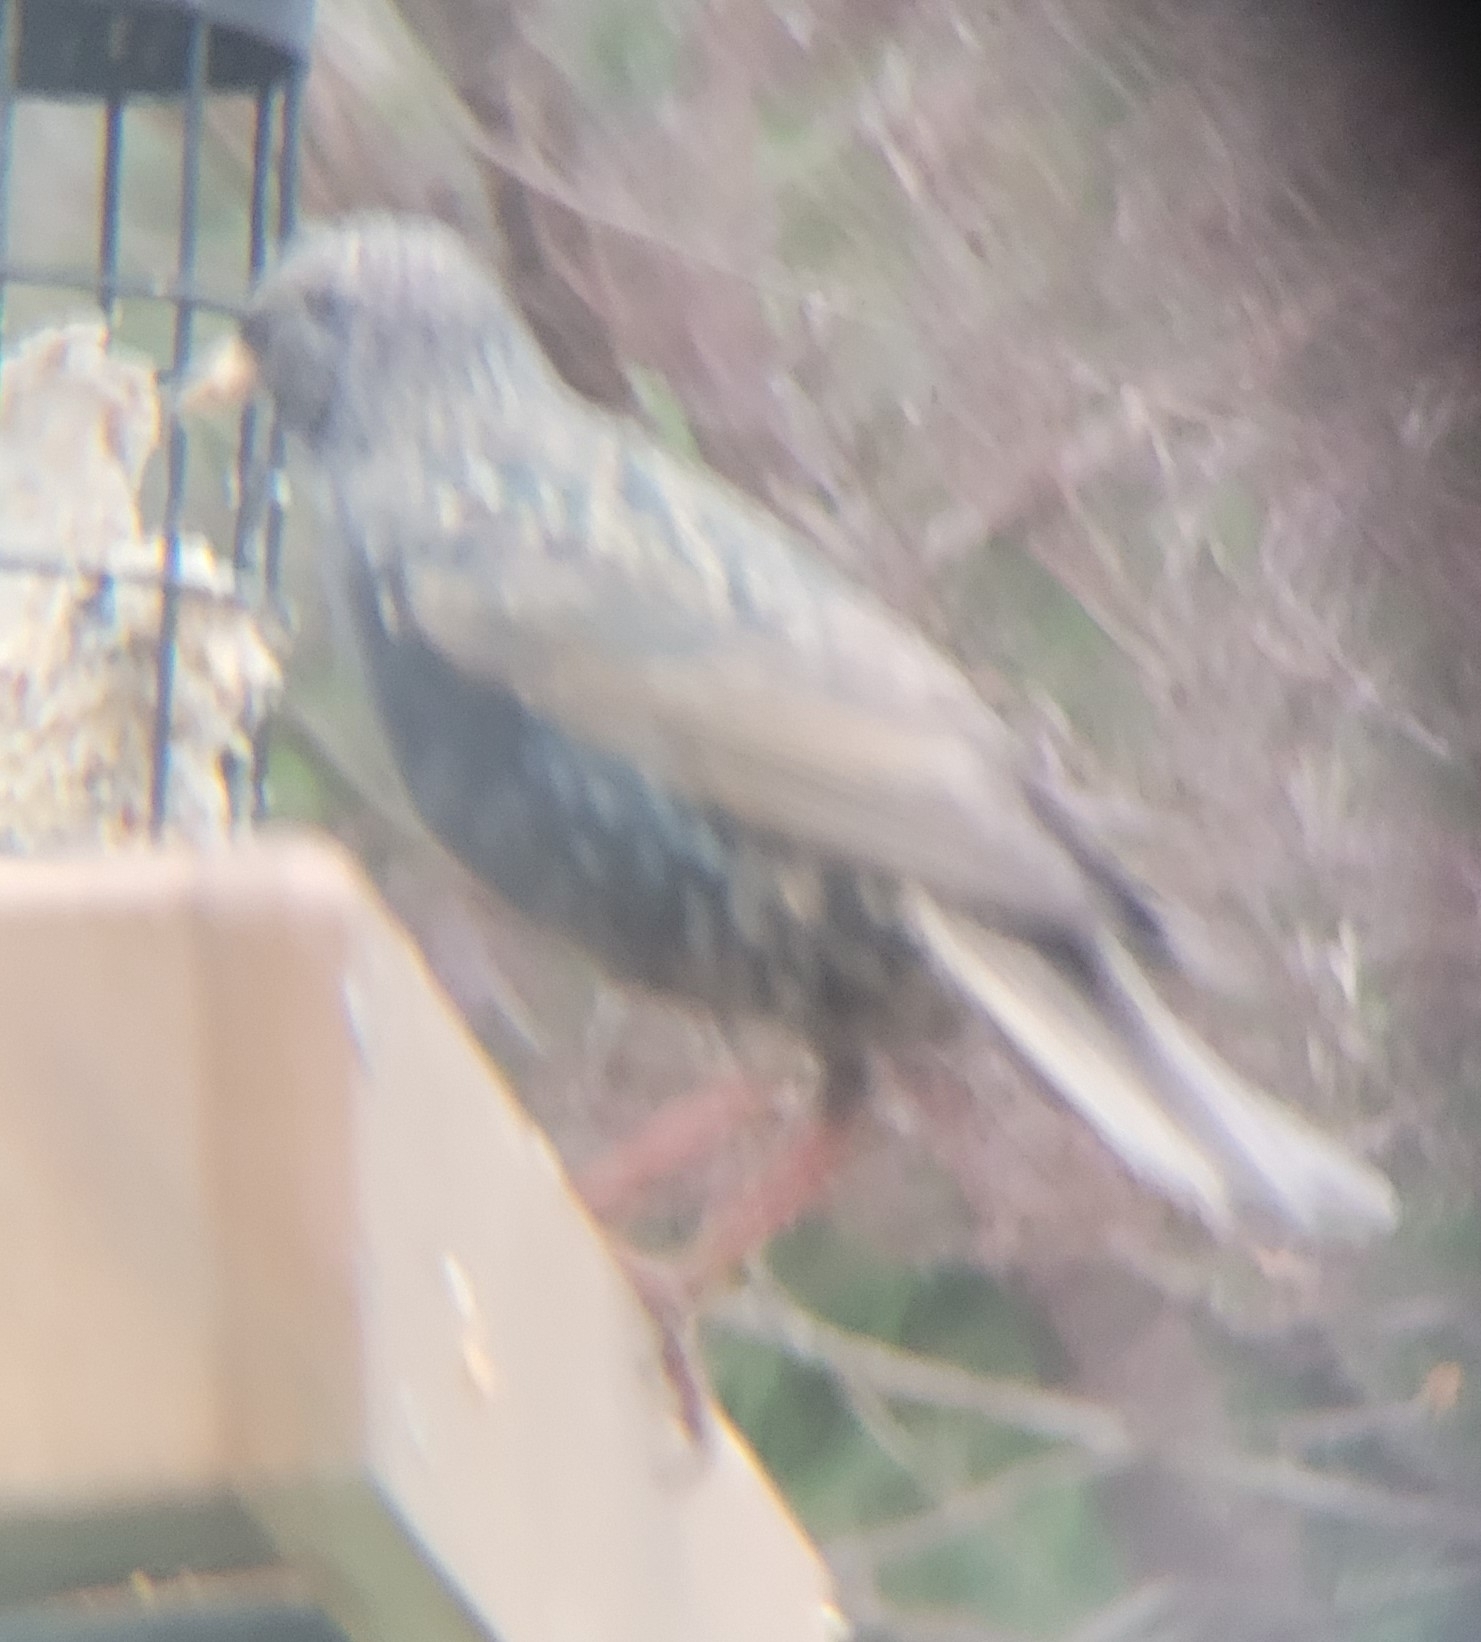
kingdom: Animalia
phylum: Chordata
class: Aves
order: Passeriformes
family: Sturnidae
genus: Sturnus
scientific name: Sturnus vulgaris
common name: Common starling
